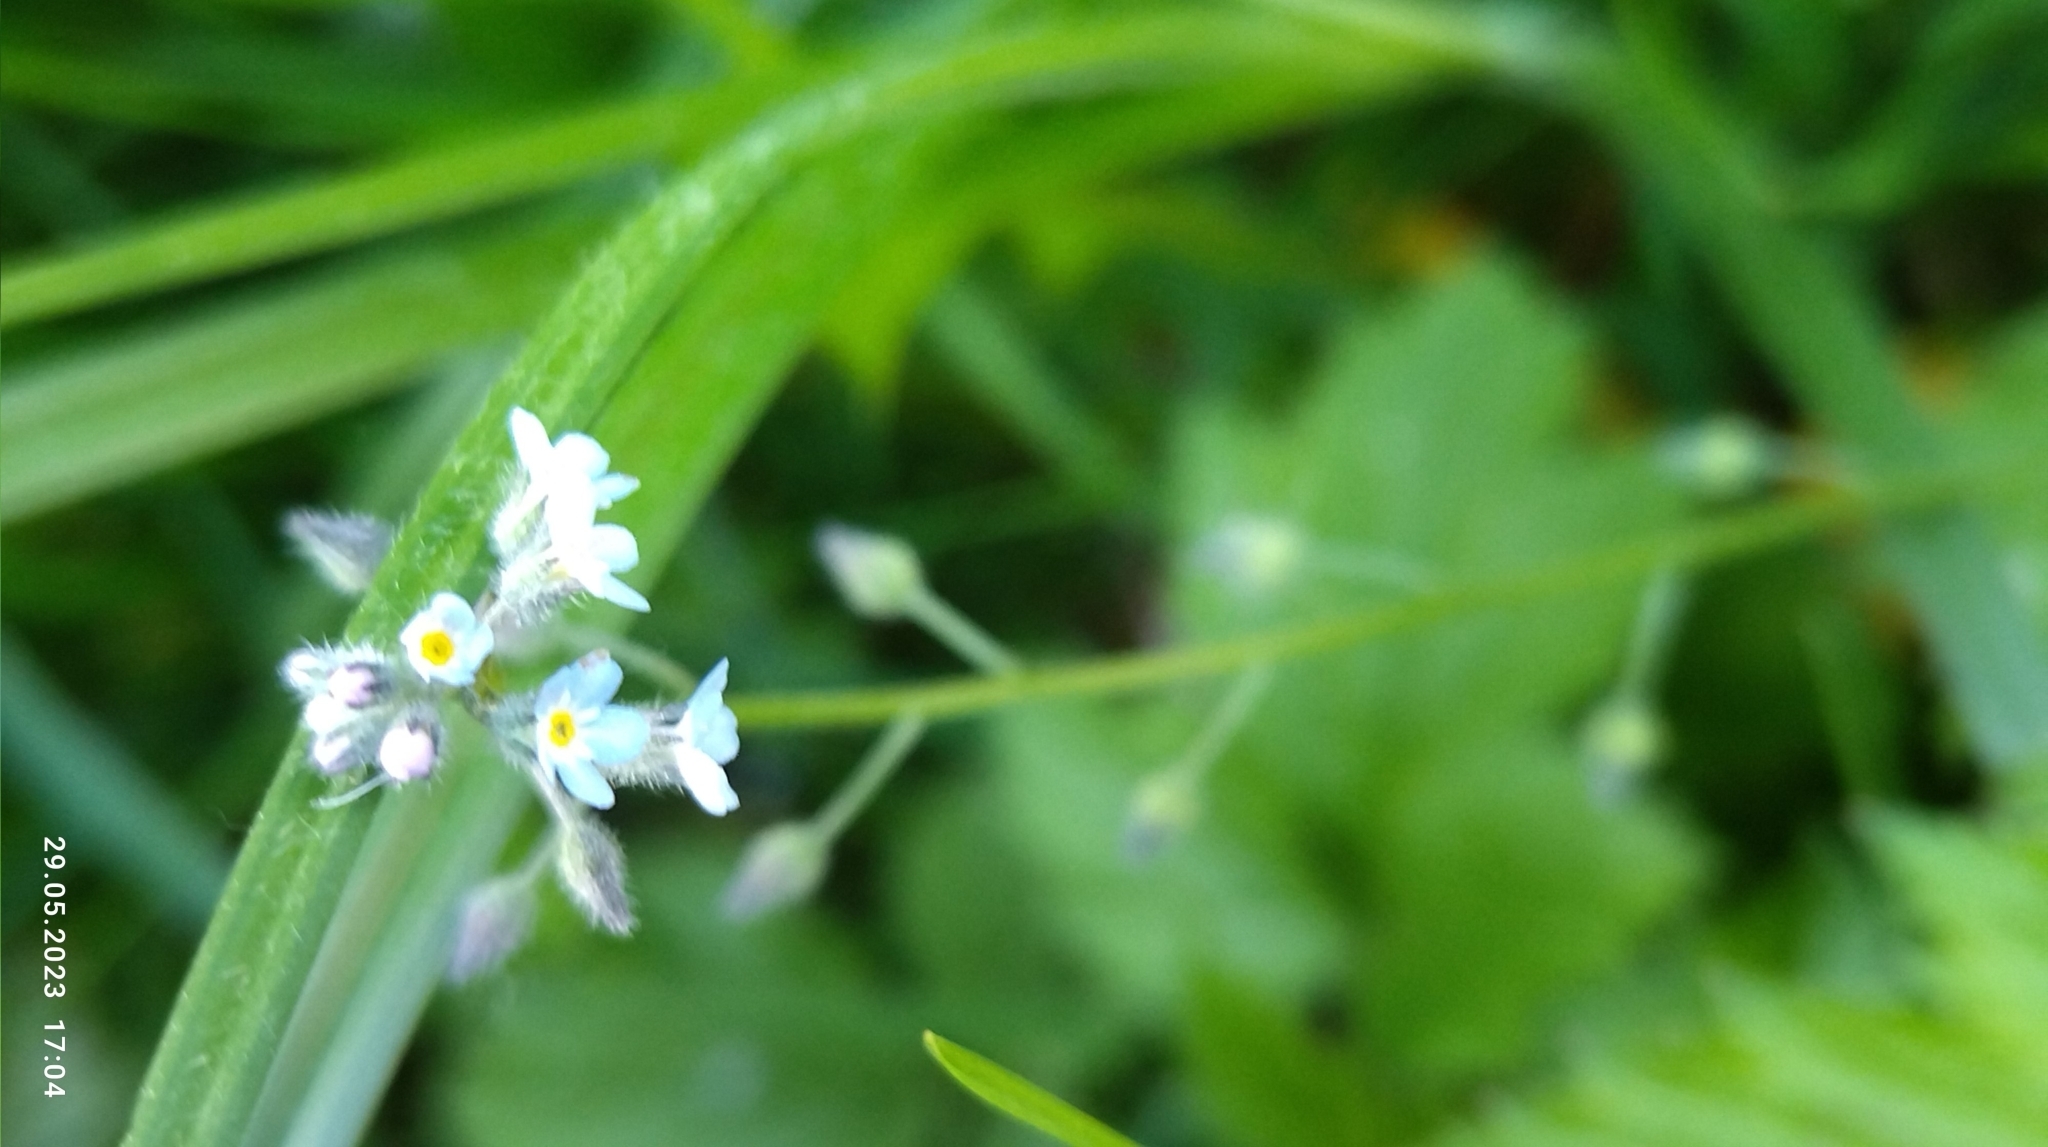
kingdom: Plantae
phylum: Tracheophyta
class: Magnoliopsida
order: Boraginales
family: Boraginaceae
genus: Myosotis
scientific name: Myosotis arvensis
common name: Field forget-me-not
